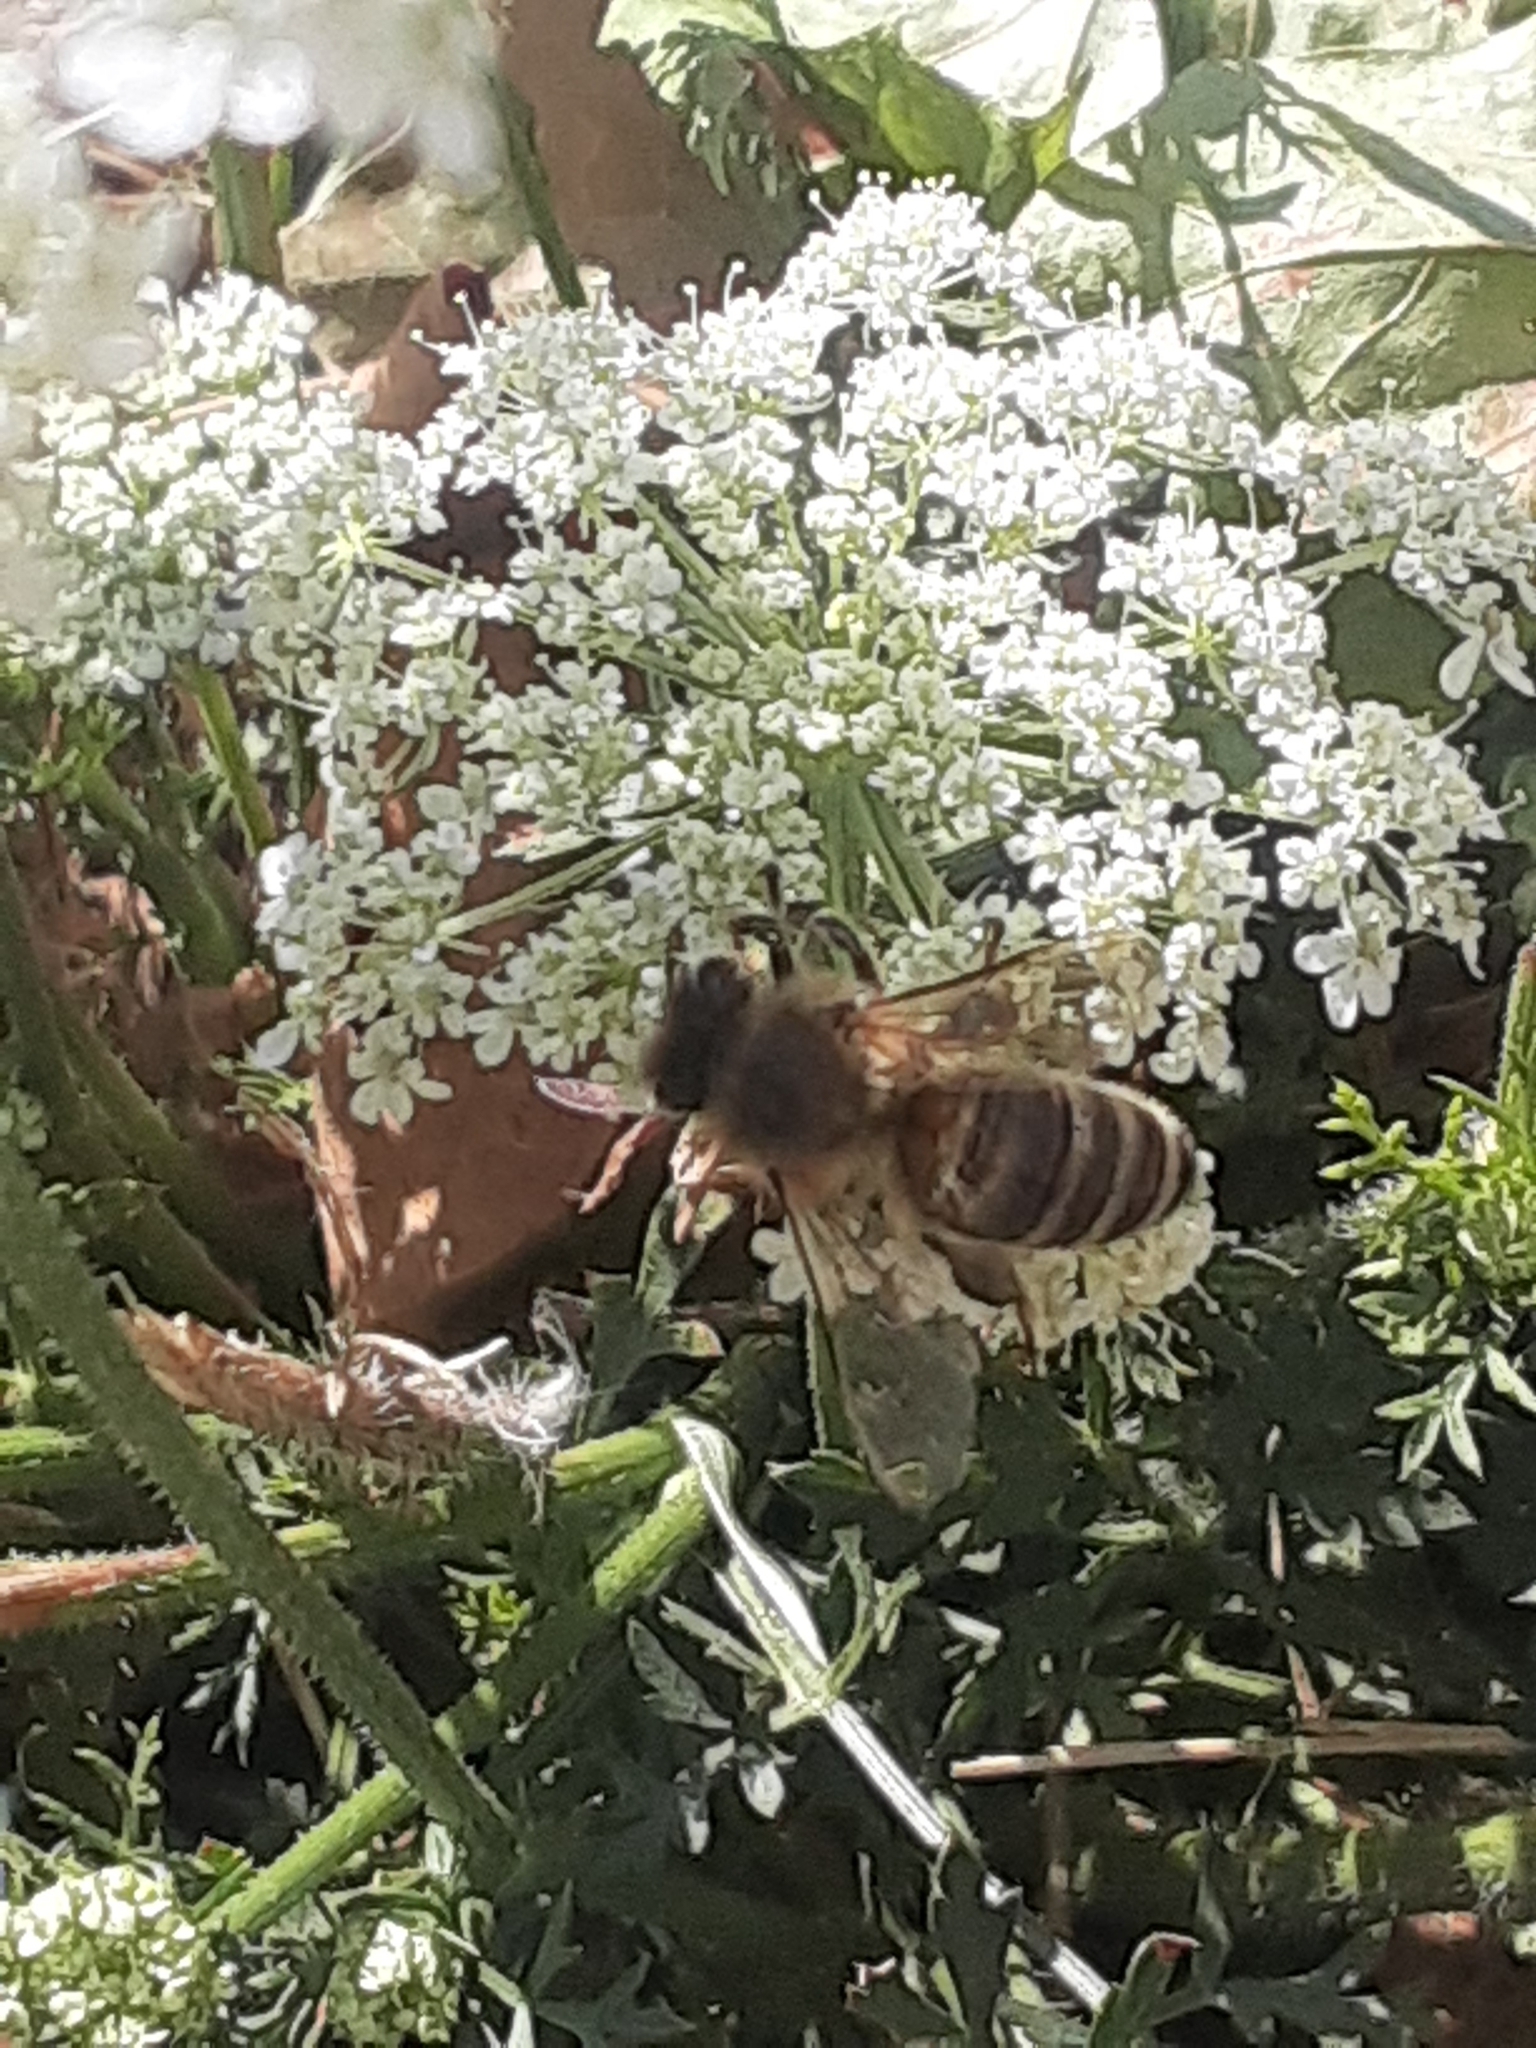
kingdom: Animalia
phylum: Arthropoda
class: Insecta
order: Hymenoptera
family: Apidae
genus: Apis
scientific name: Apis mellifera
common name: Honey bee
